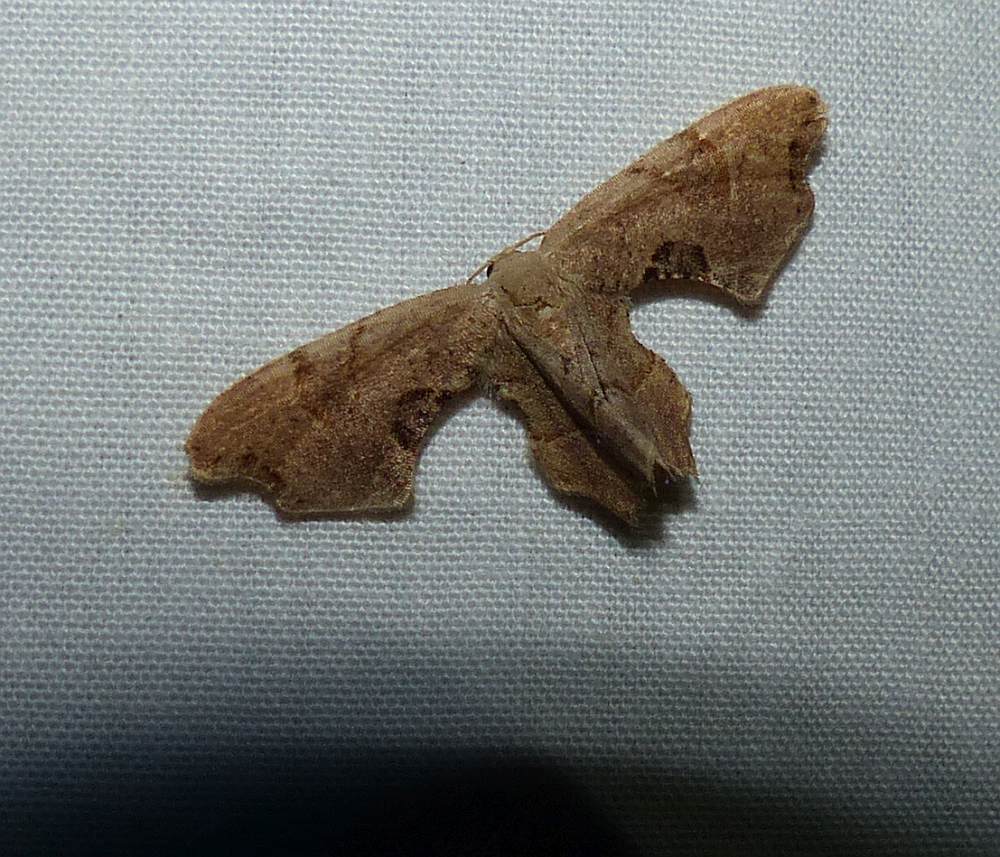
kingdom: Animalia
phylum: Arthropoda
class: Insecta
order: Lepidoptera
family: Uraniidae
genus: Epiplema
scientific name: Epiplema Calledapteryx dryopterata
